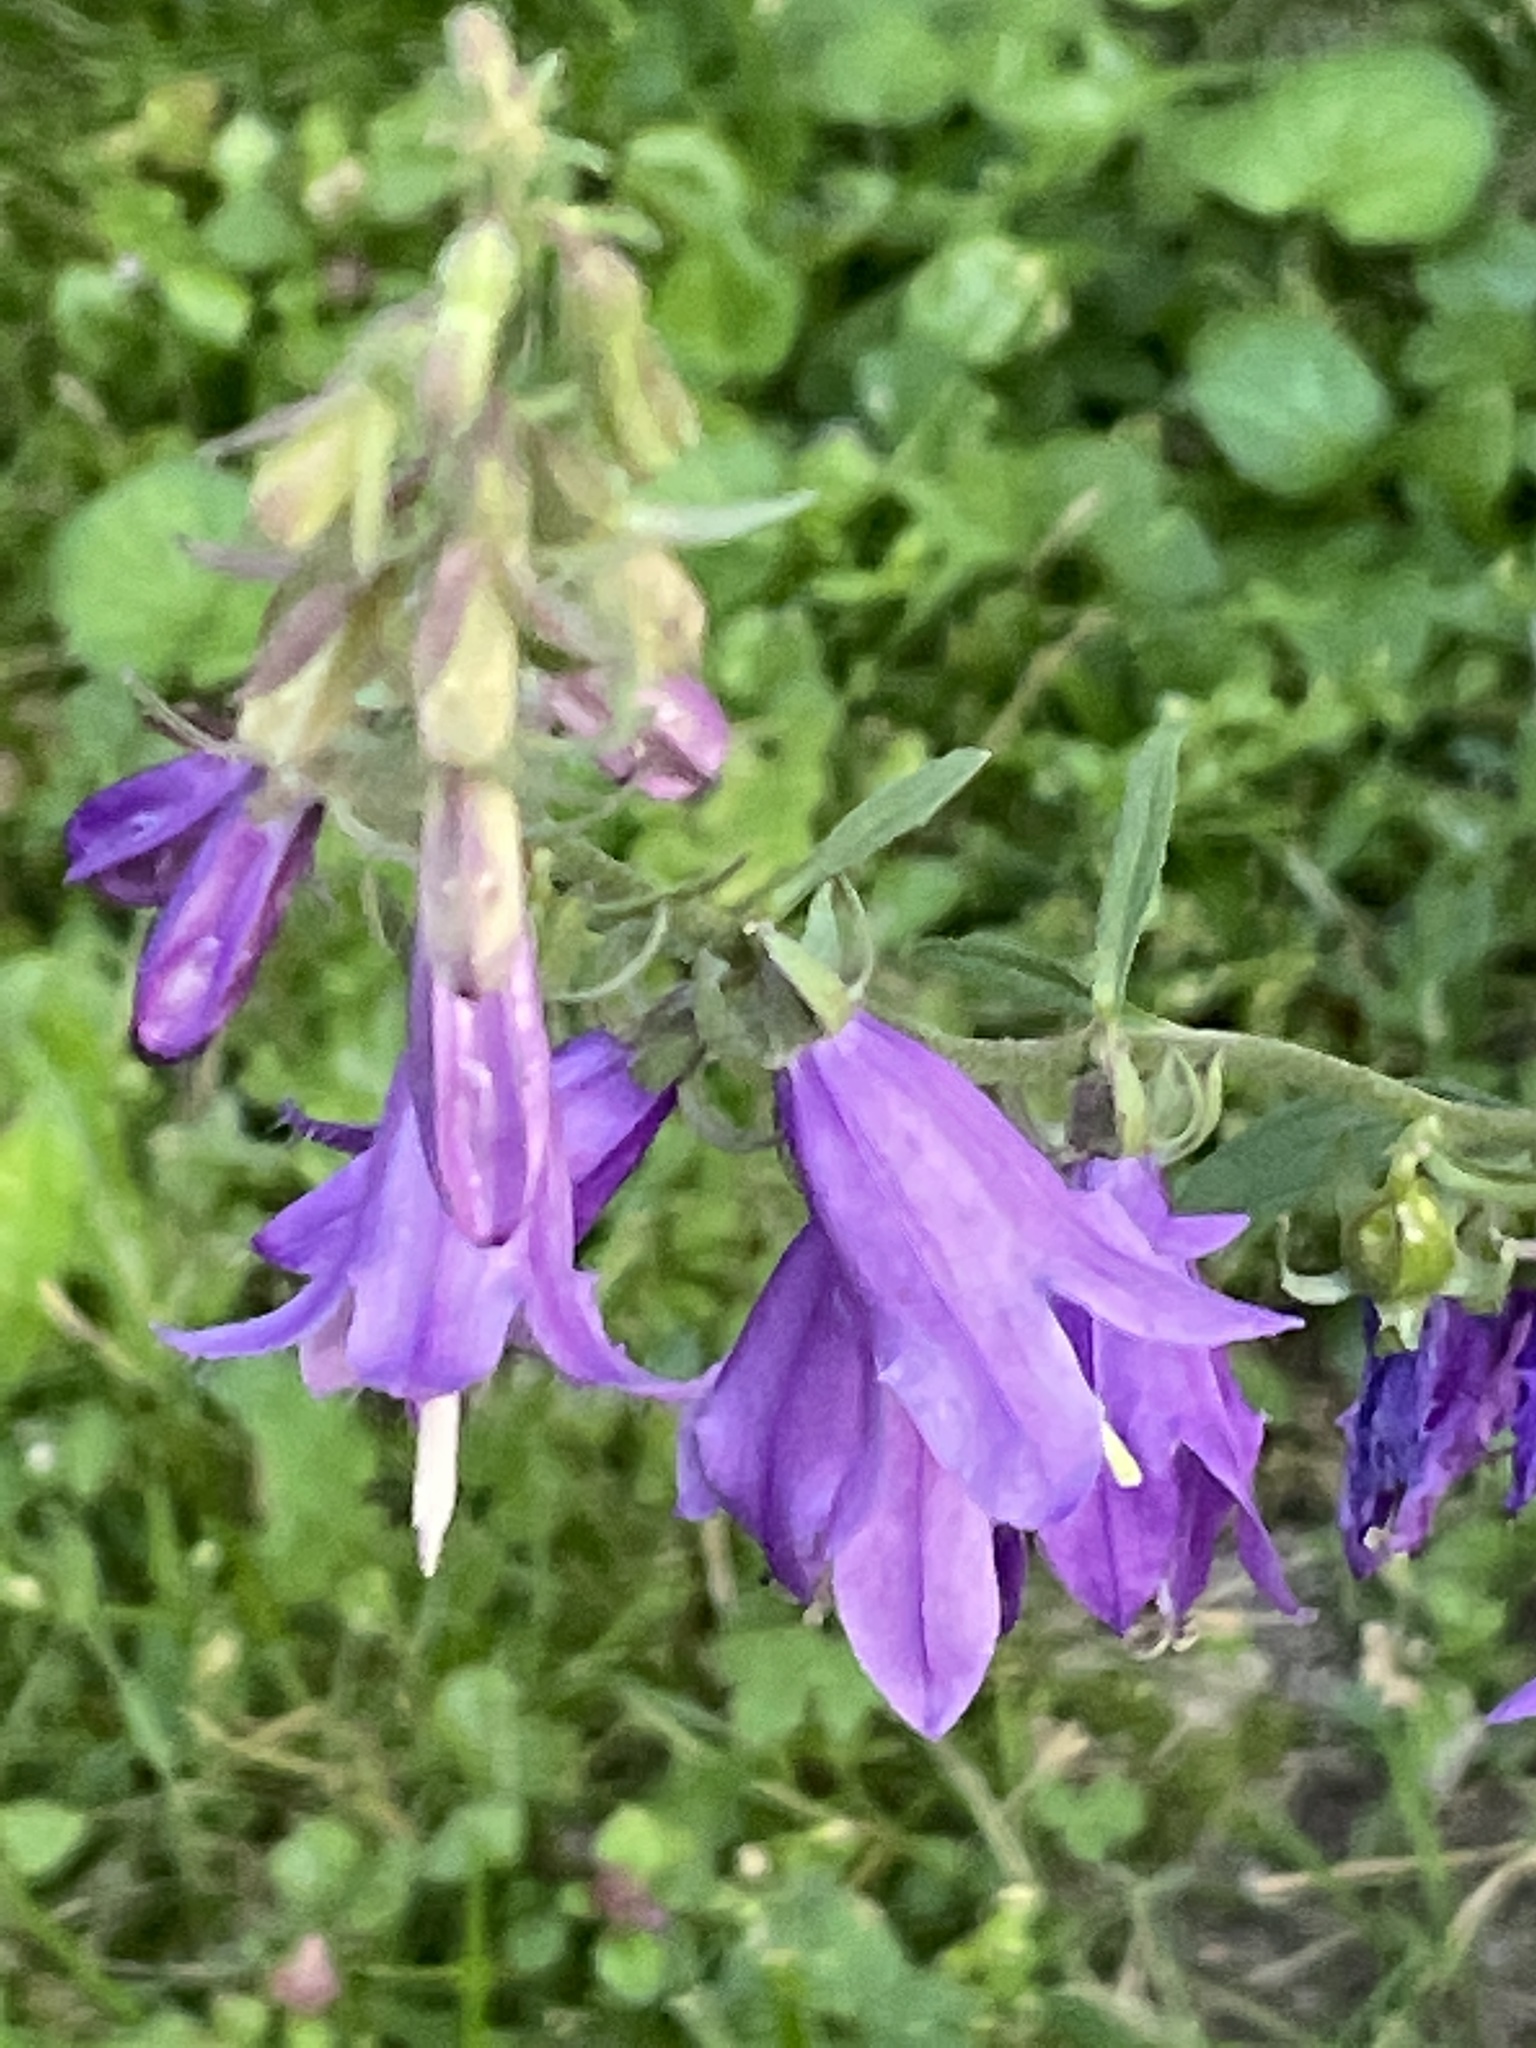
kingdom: Plantae
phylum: Tracheophyta
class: Magnoliopsida
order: Asterales
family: Campanulaceae
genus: Campanula
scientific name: Campanula rapunculoides
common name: Creeping bellflower
